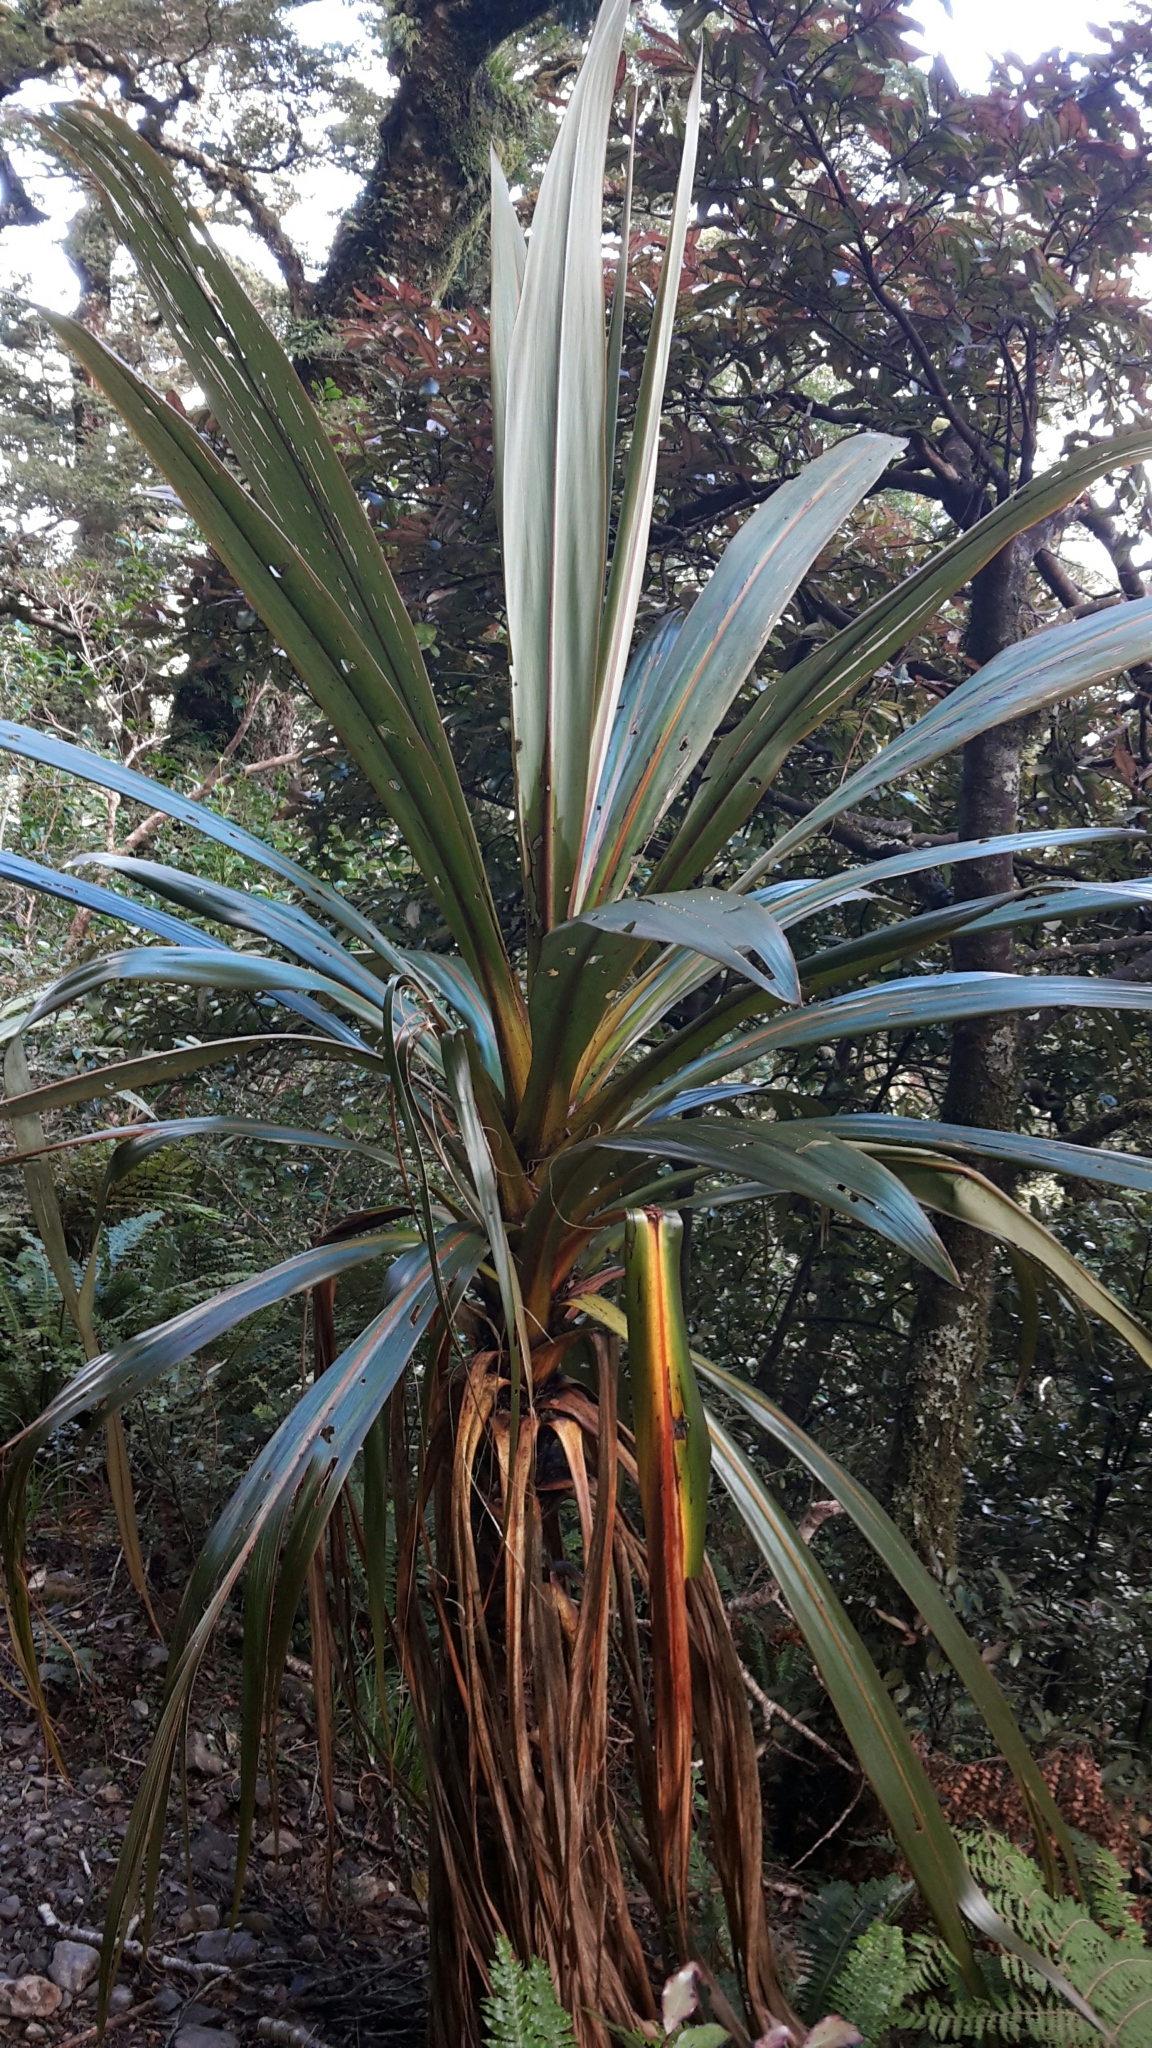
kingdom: Plantae
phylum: Tracheophyta
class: Liliopsida
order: Asparagales
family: Asparagaceae
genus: Cordyline
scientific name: Cordyline indivisa
